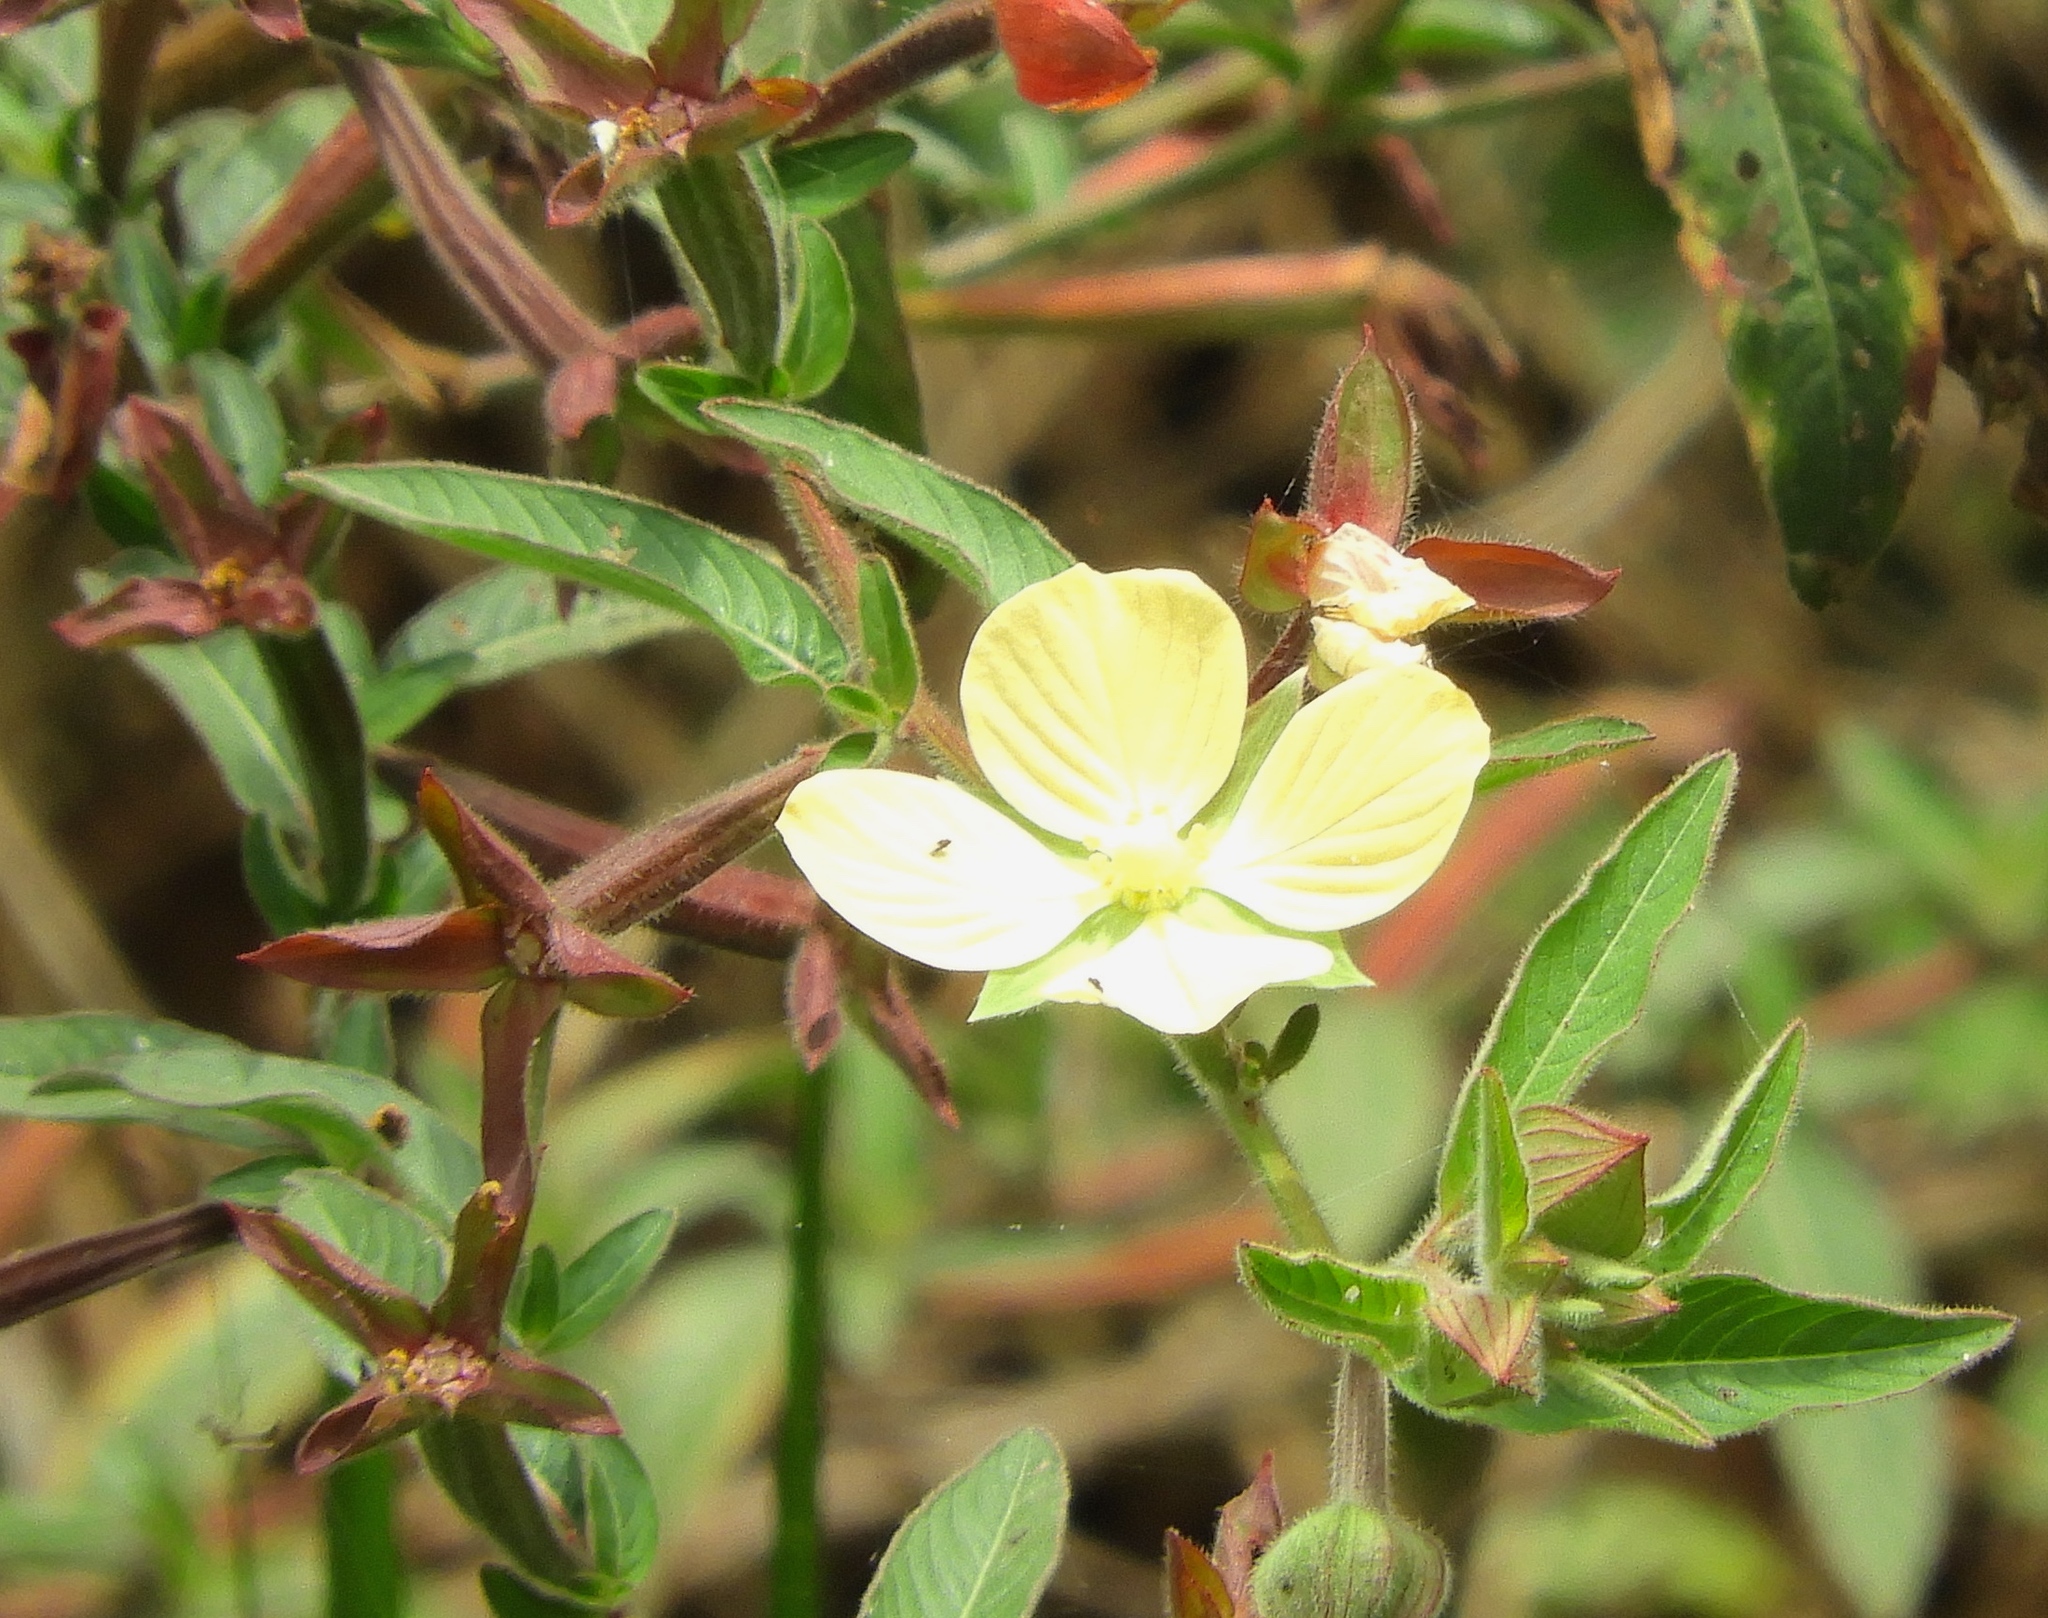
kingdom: Plantae
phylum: Tracheophyta
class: Magnoliopsida
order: Myrtales
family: Onagraceae
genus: Ludwigia
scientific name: Ludwigia octovalvis
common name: Water-primrose
